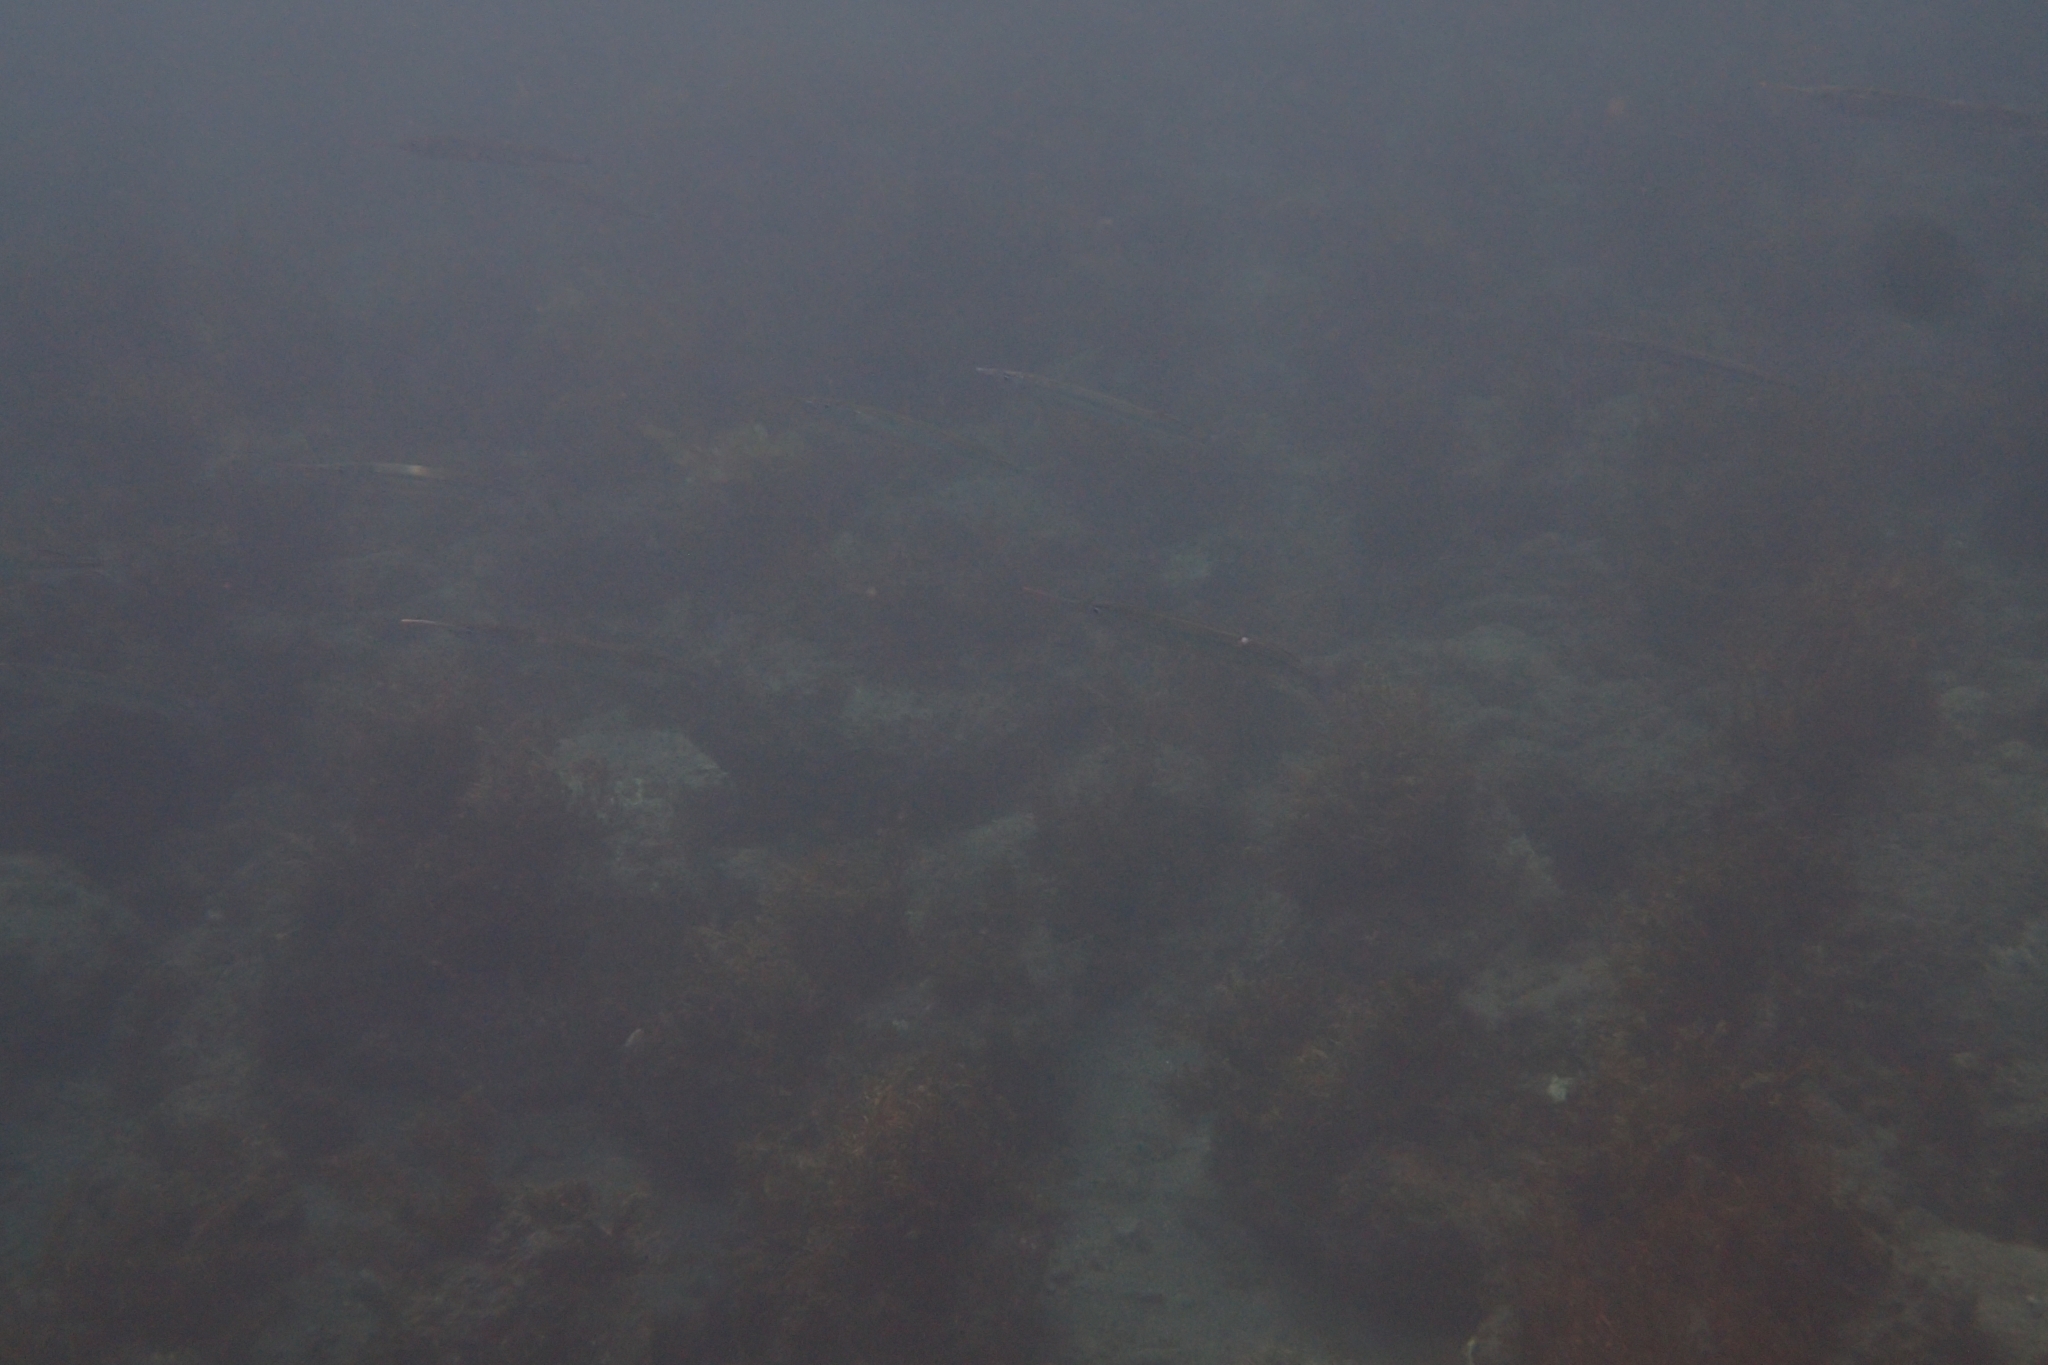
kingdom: Animalia
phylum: Chordata
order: Beloniformes
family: Hemiramphidae
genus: Hyporhamphus
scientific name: Hyporhamphus ihi
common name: Garfish
